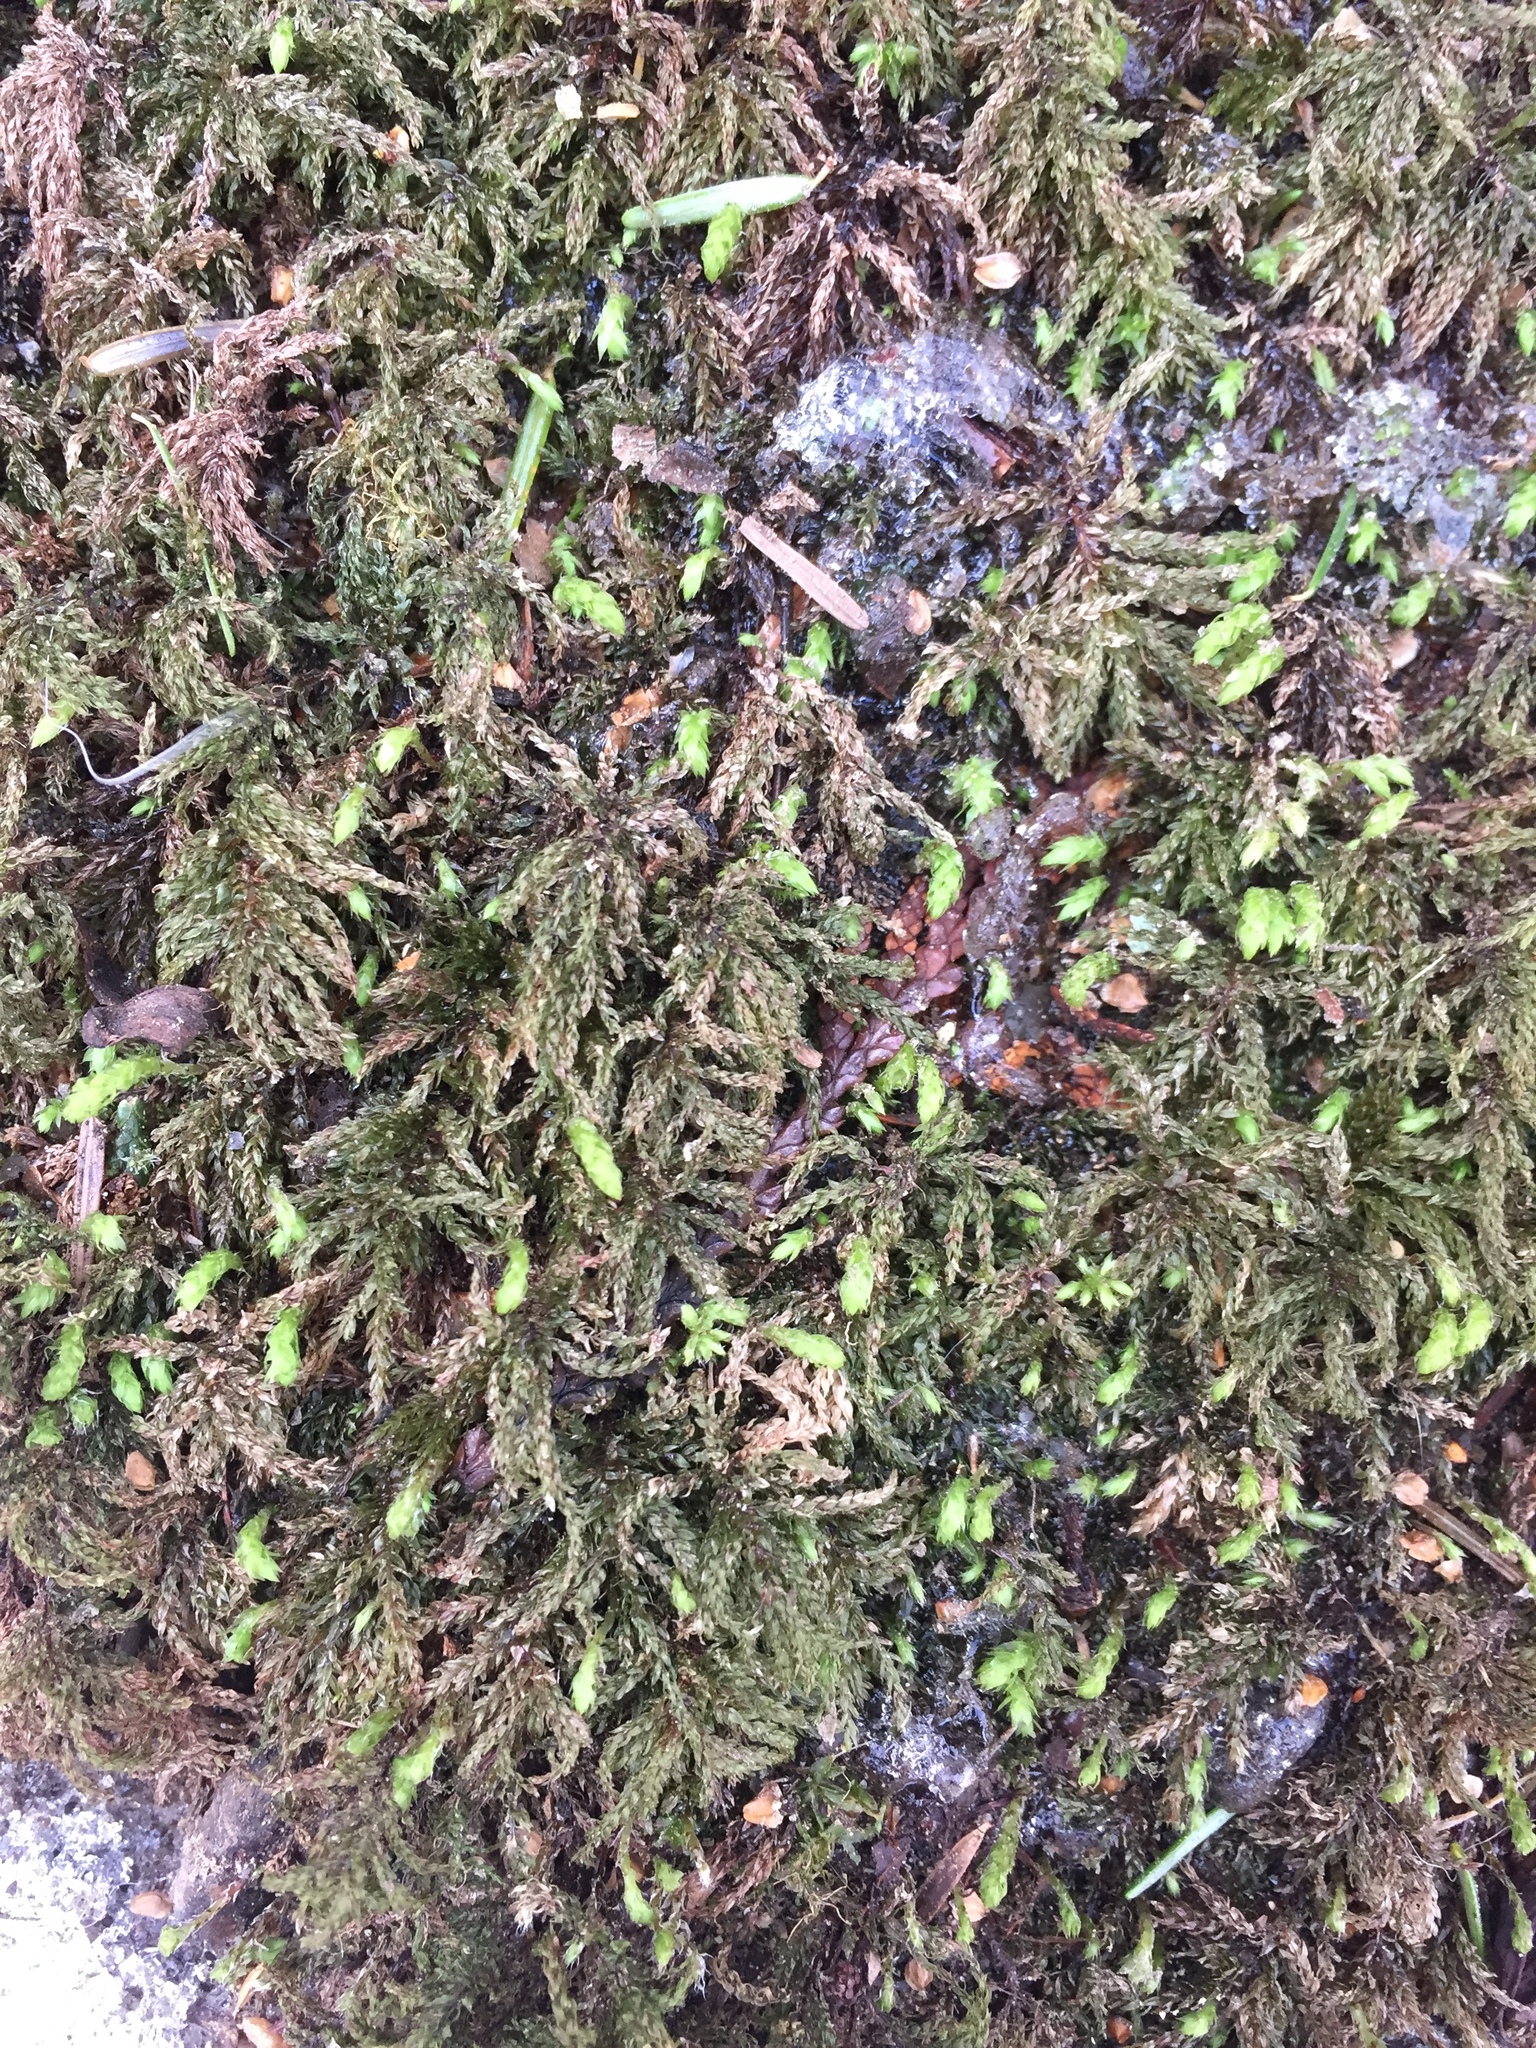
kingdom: Plantae
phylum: Bryophyta
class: Bryopsida
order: Bryales
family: Mniaceae
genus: Leucolepis
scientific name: Leucolepis acanthoneura
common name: Leucolepis umbrella moss
